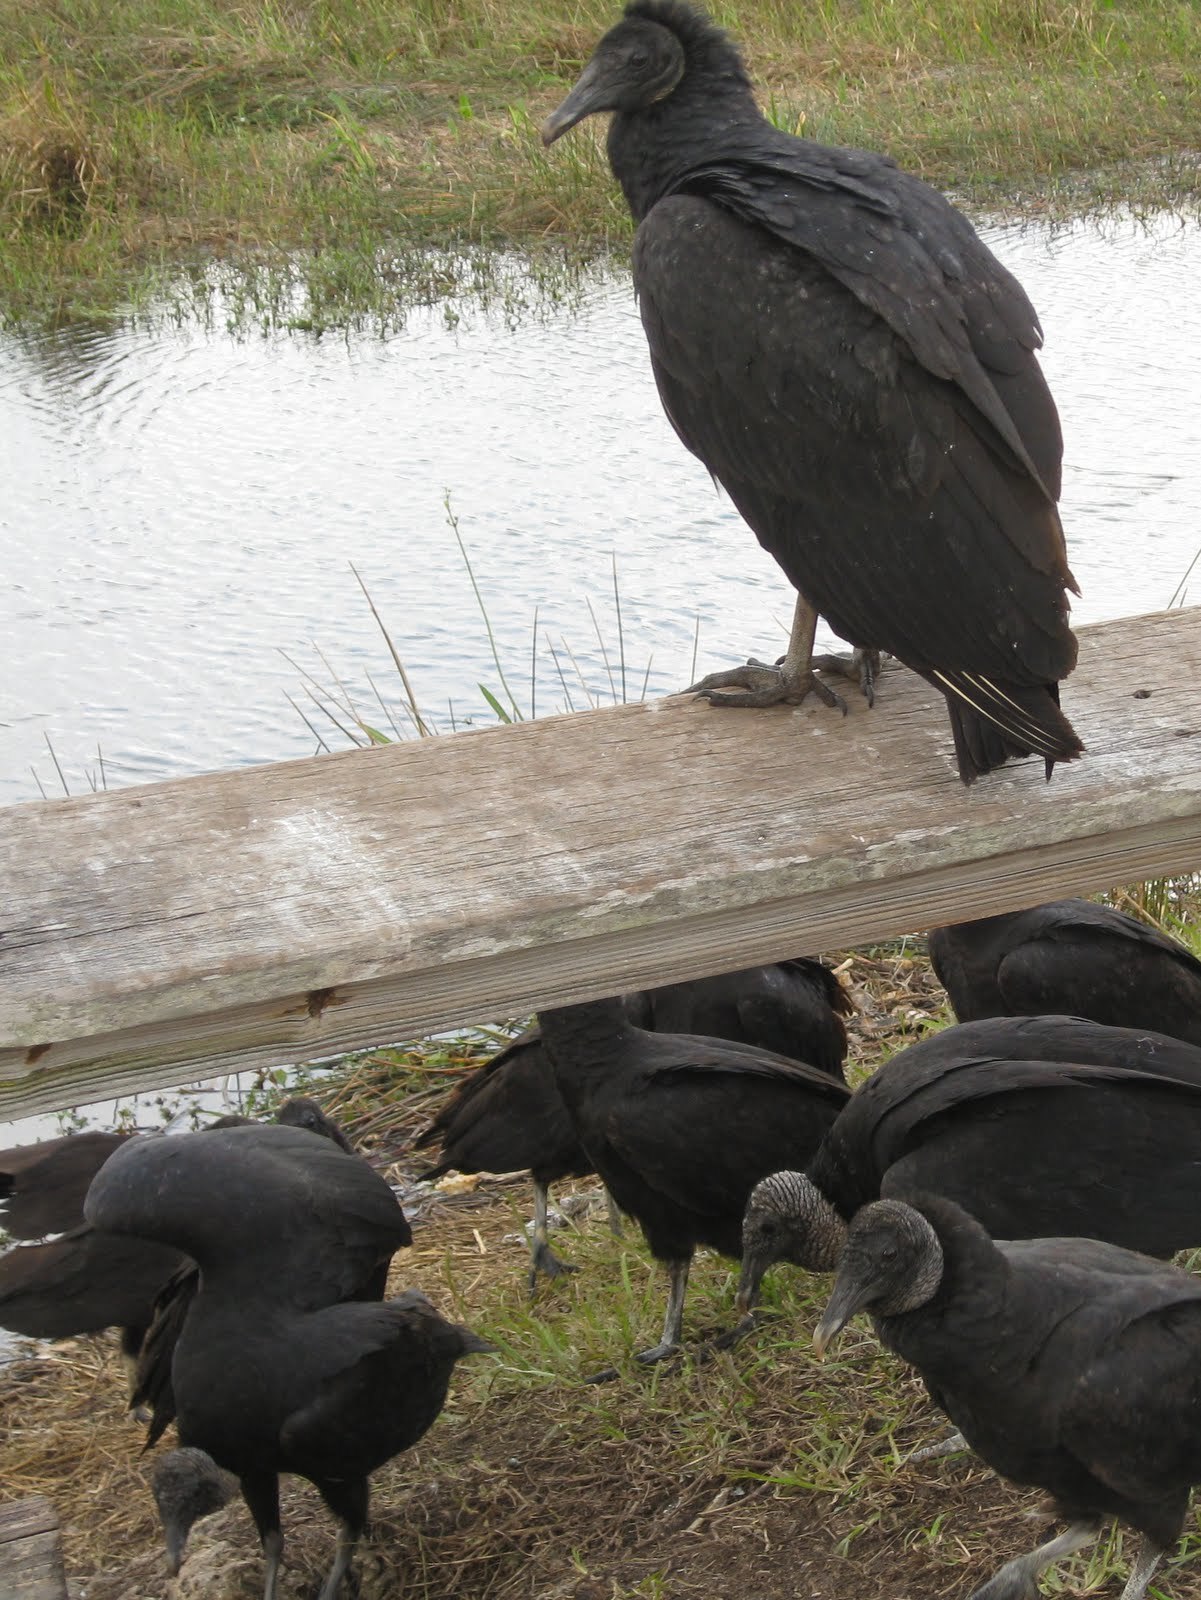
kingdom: Animalia
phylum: Chordata
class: Aves
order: Accipitriformes
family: Cathartidae
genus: Coragyps
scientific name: Coragyps atratus
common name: Black vulture
